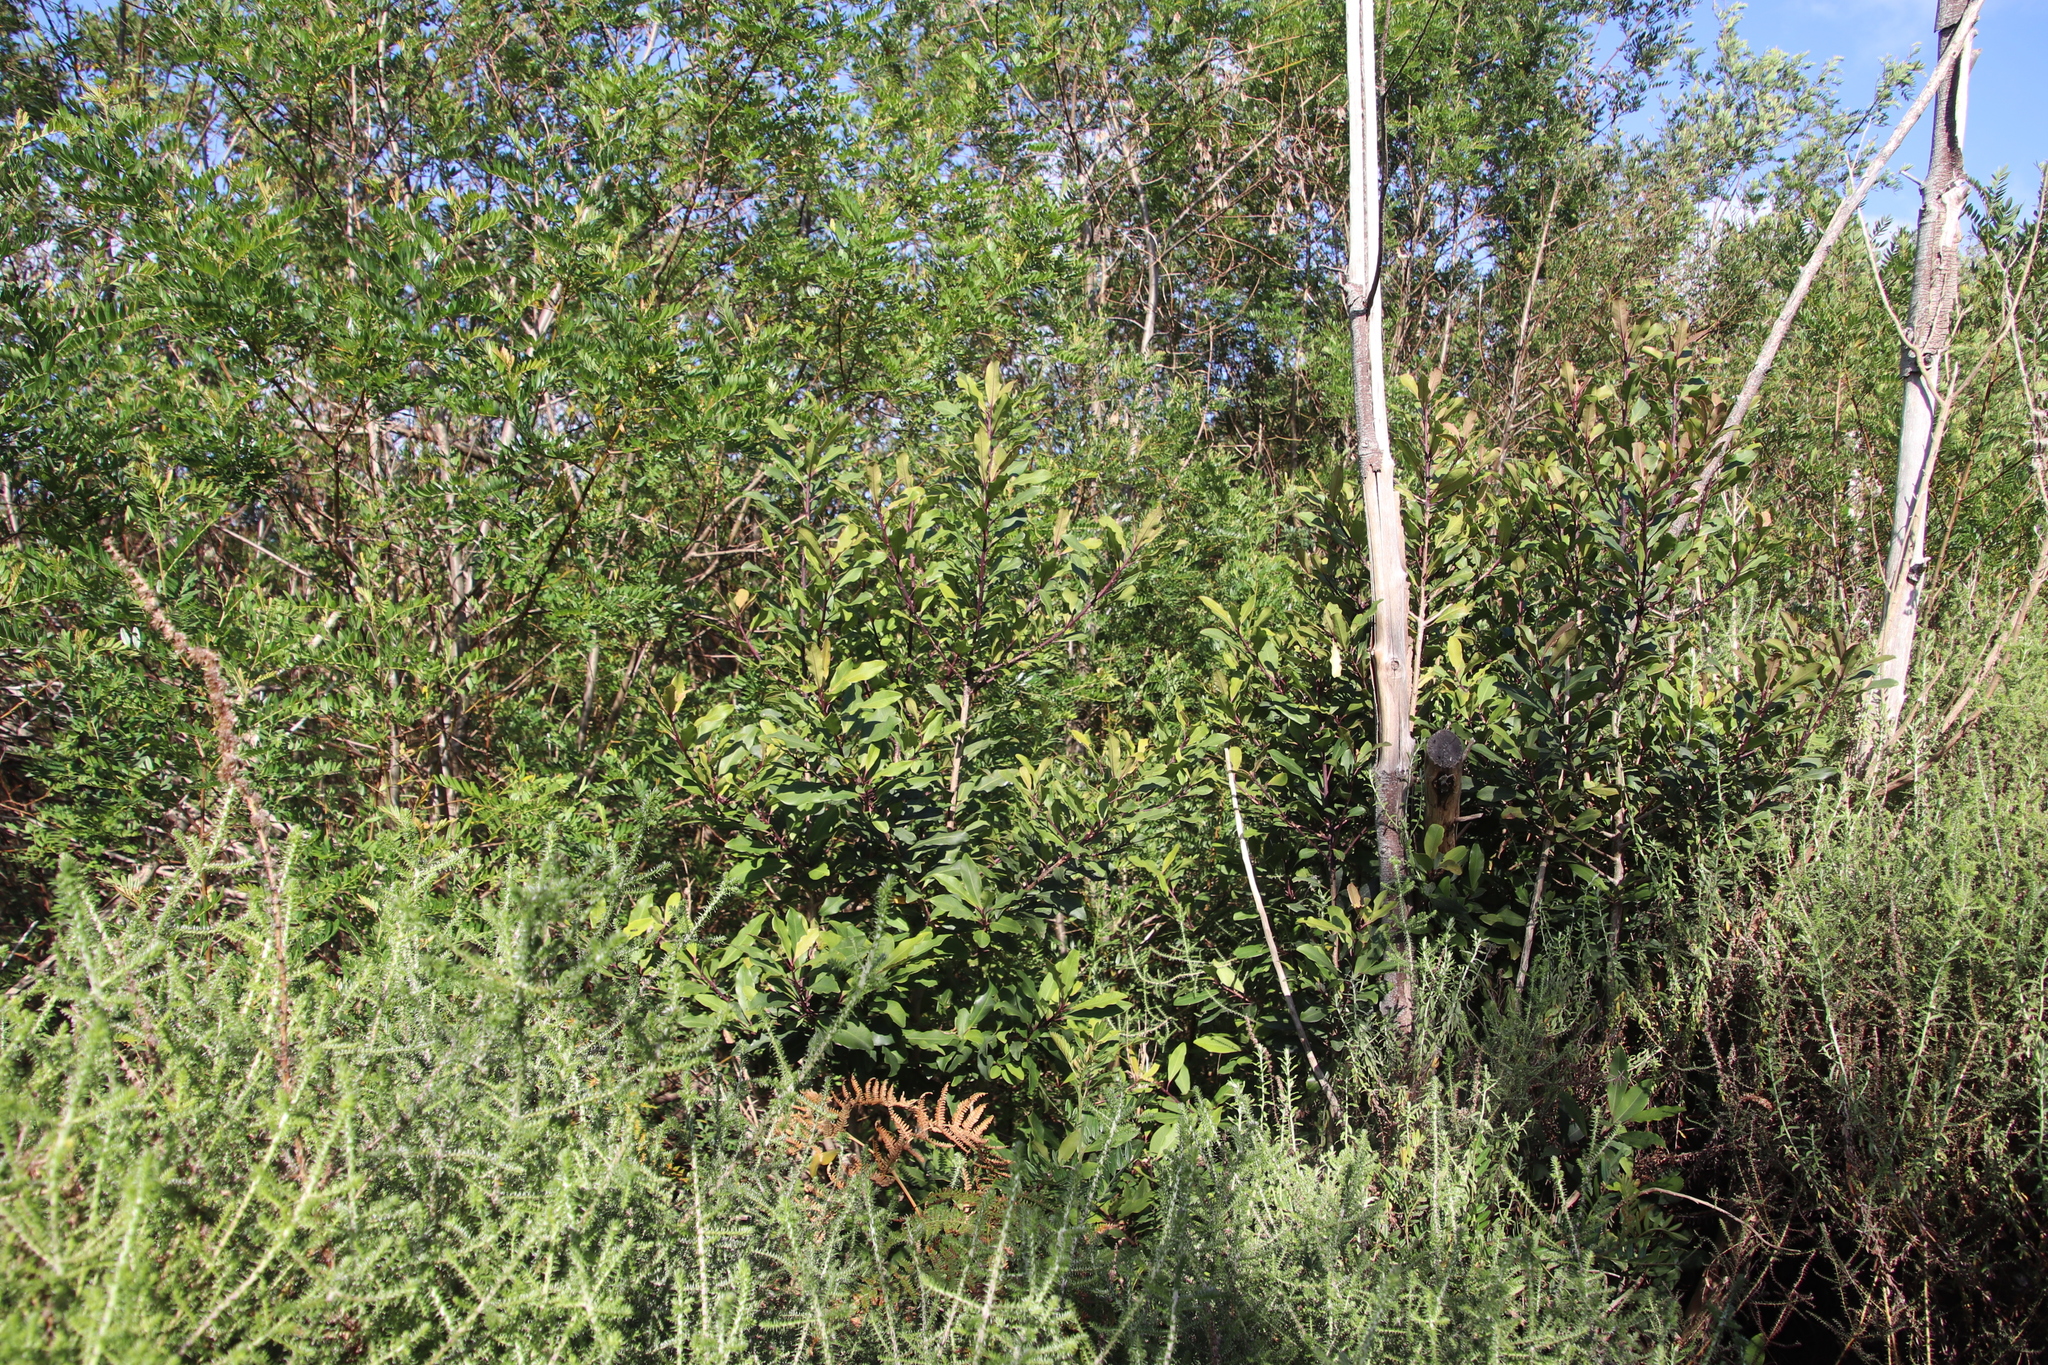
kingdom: Plantae
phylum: Tracheophyta
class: Magnoliopsida
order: Ericales
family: Primulaceae
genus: Myrsine
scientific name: Myrsine melanophloeos
